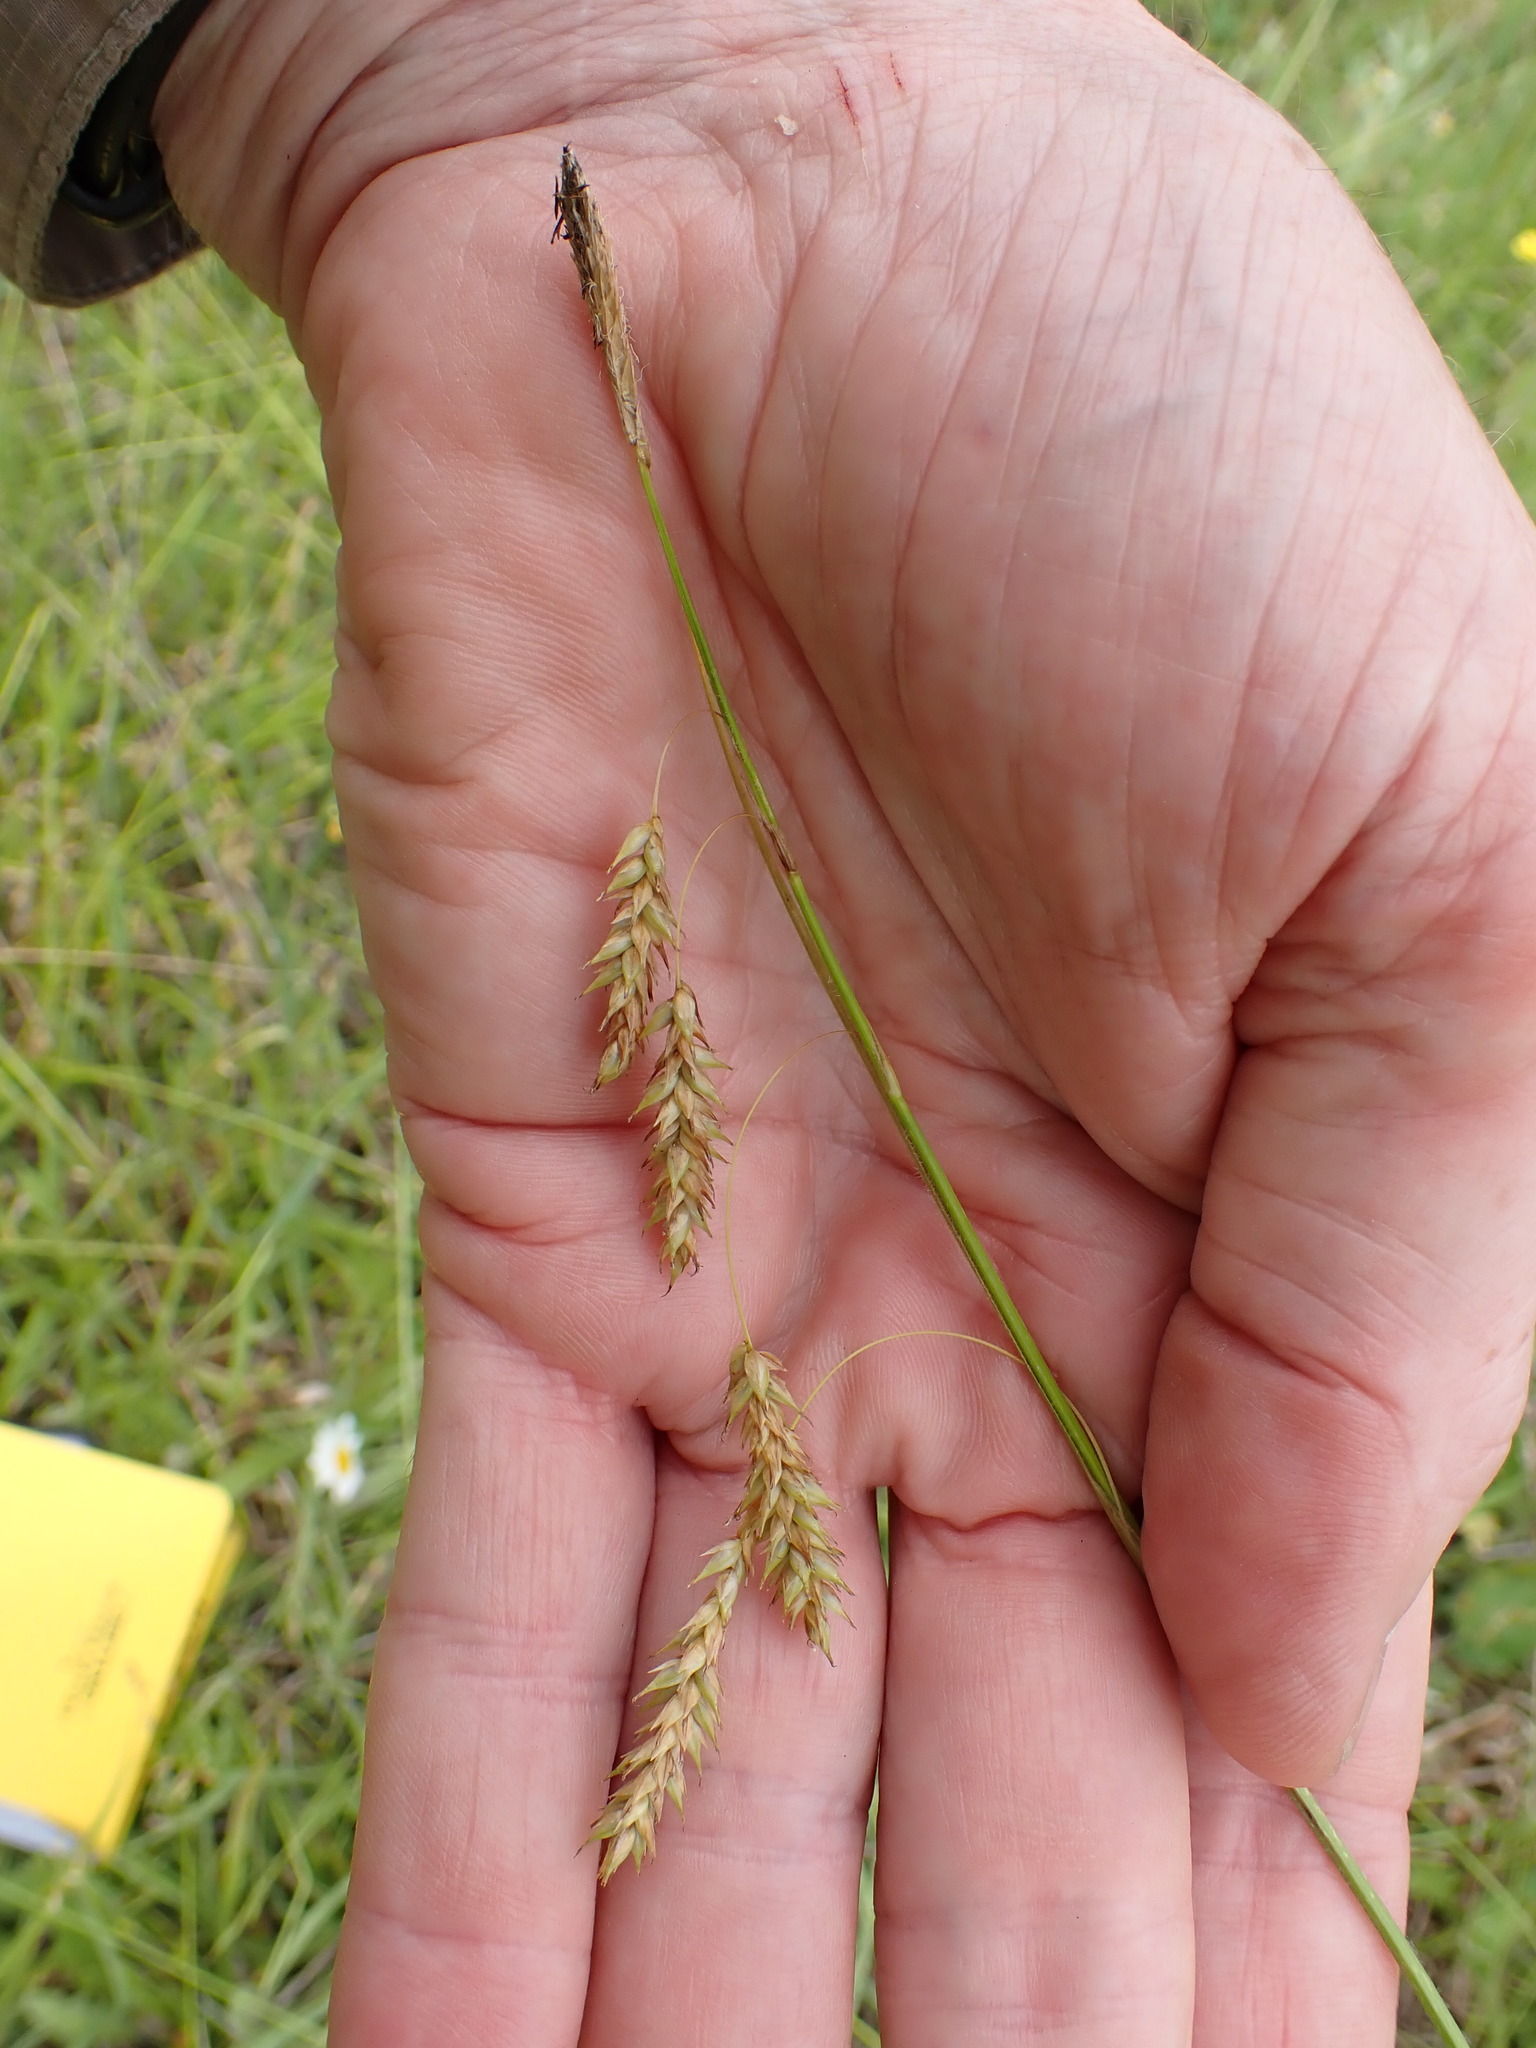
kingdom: Plantae
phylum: Tracheophyta
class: Liliopsida
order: Poales
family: Cyperaceae
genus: Carex
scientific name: Carex castanea
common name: Chestnut sedge
